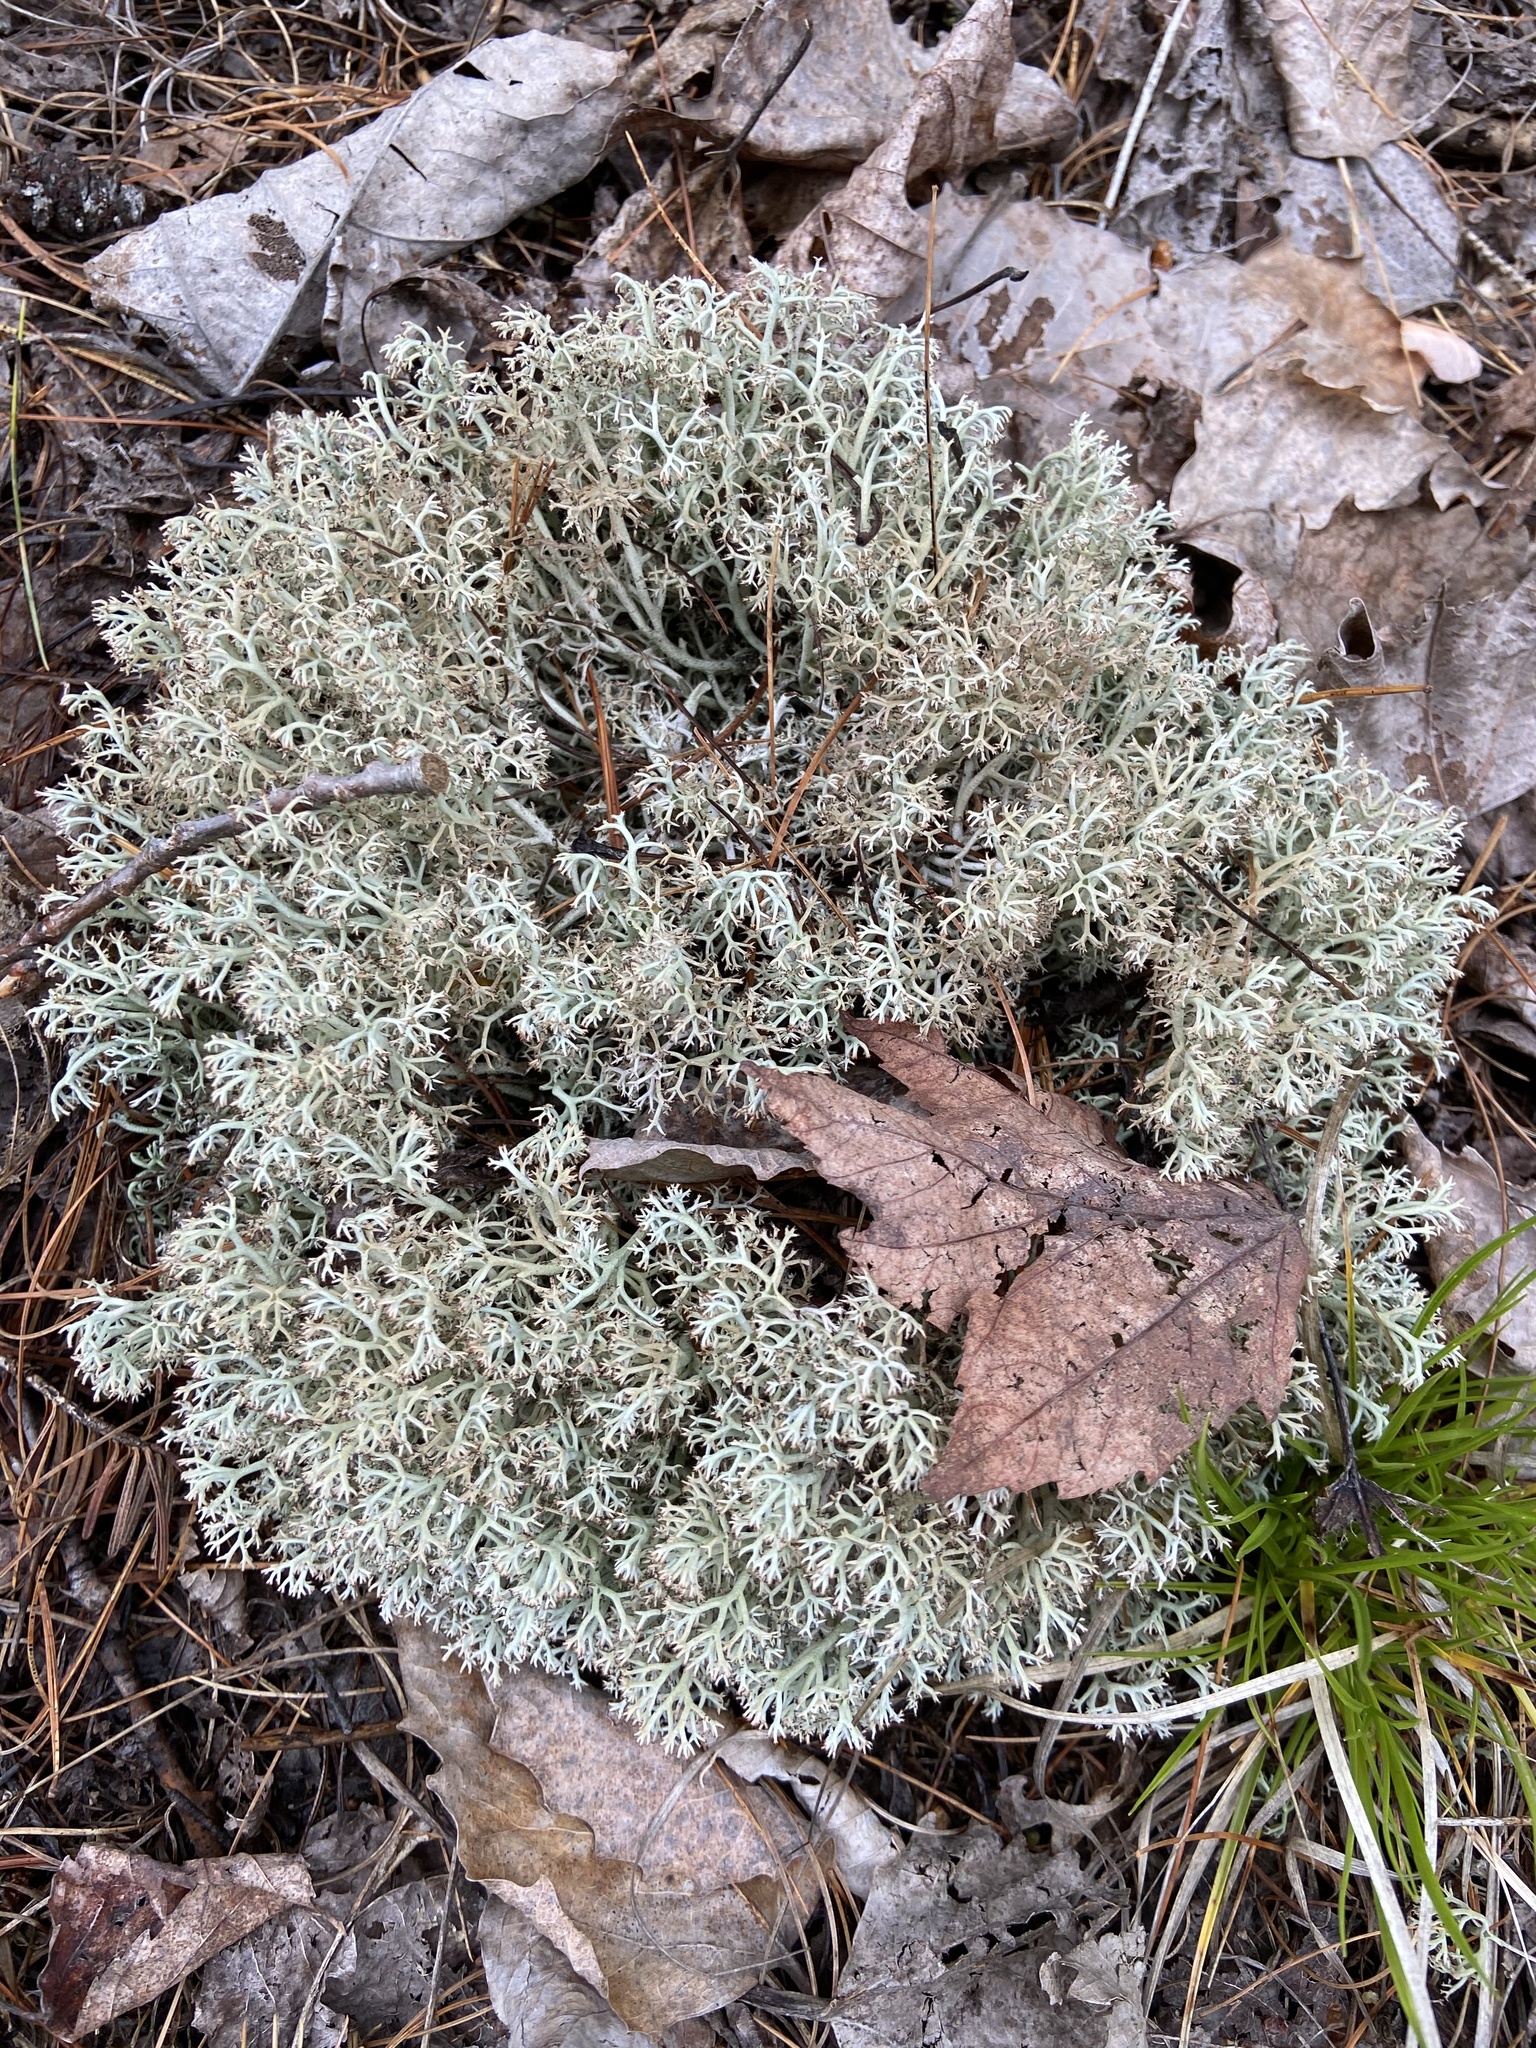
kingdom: Fungi
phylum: Ascomycota
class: Lecanoromycetes
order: Lecanorales
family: Cladoniaceae
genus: Cladonia
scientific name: Cladonia rangiferina
